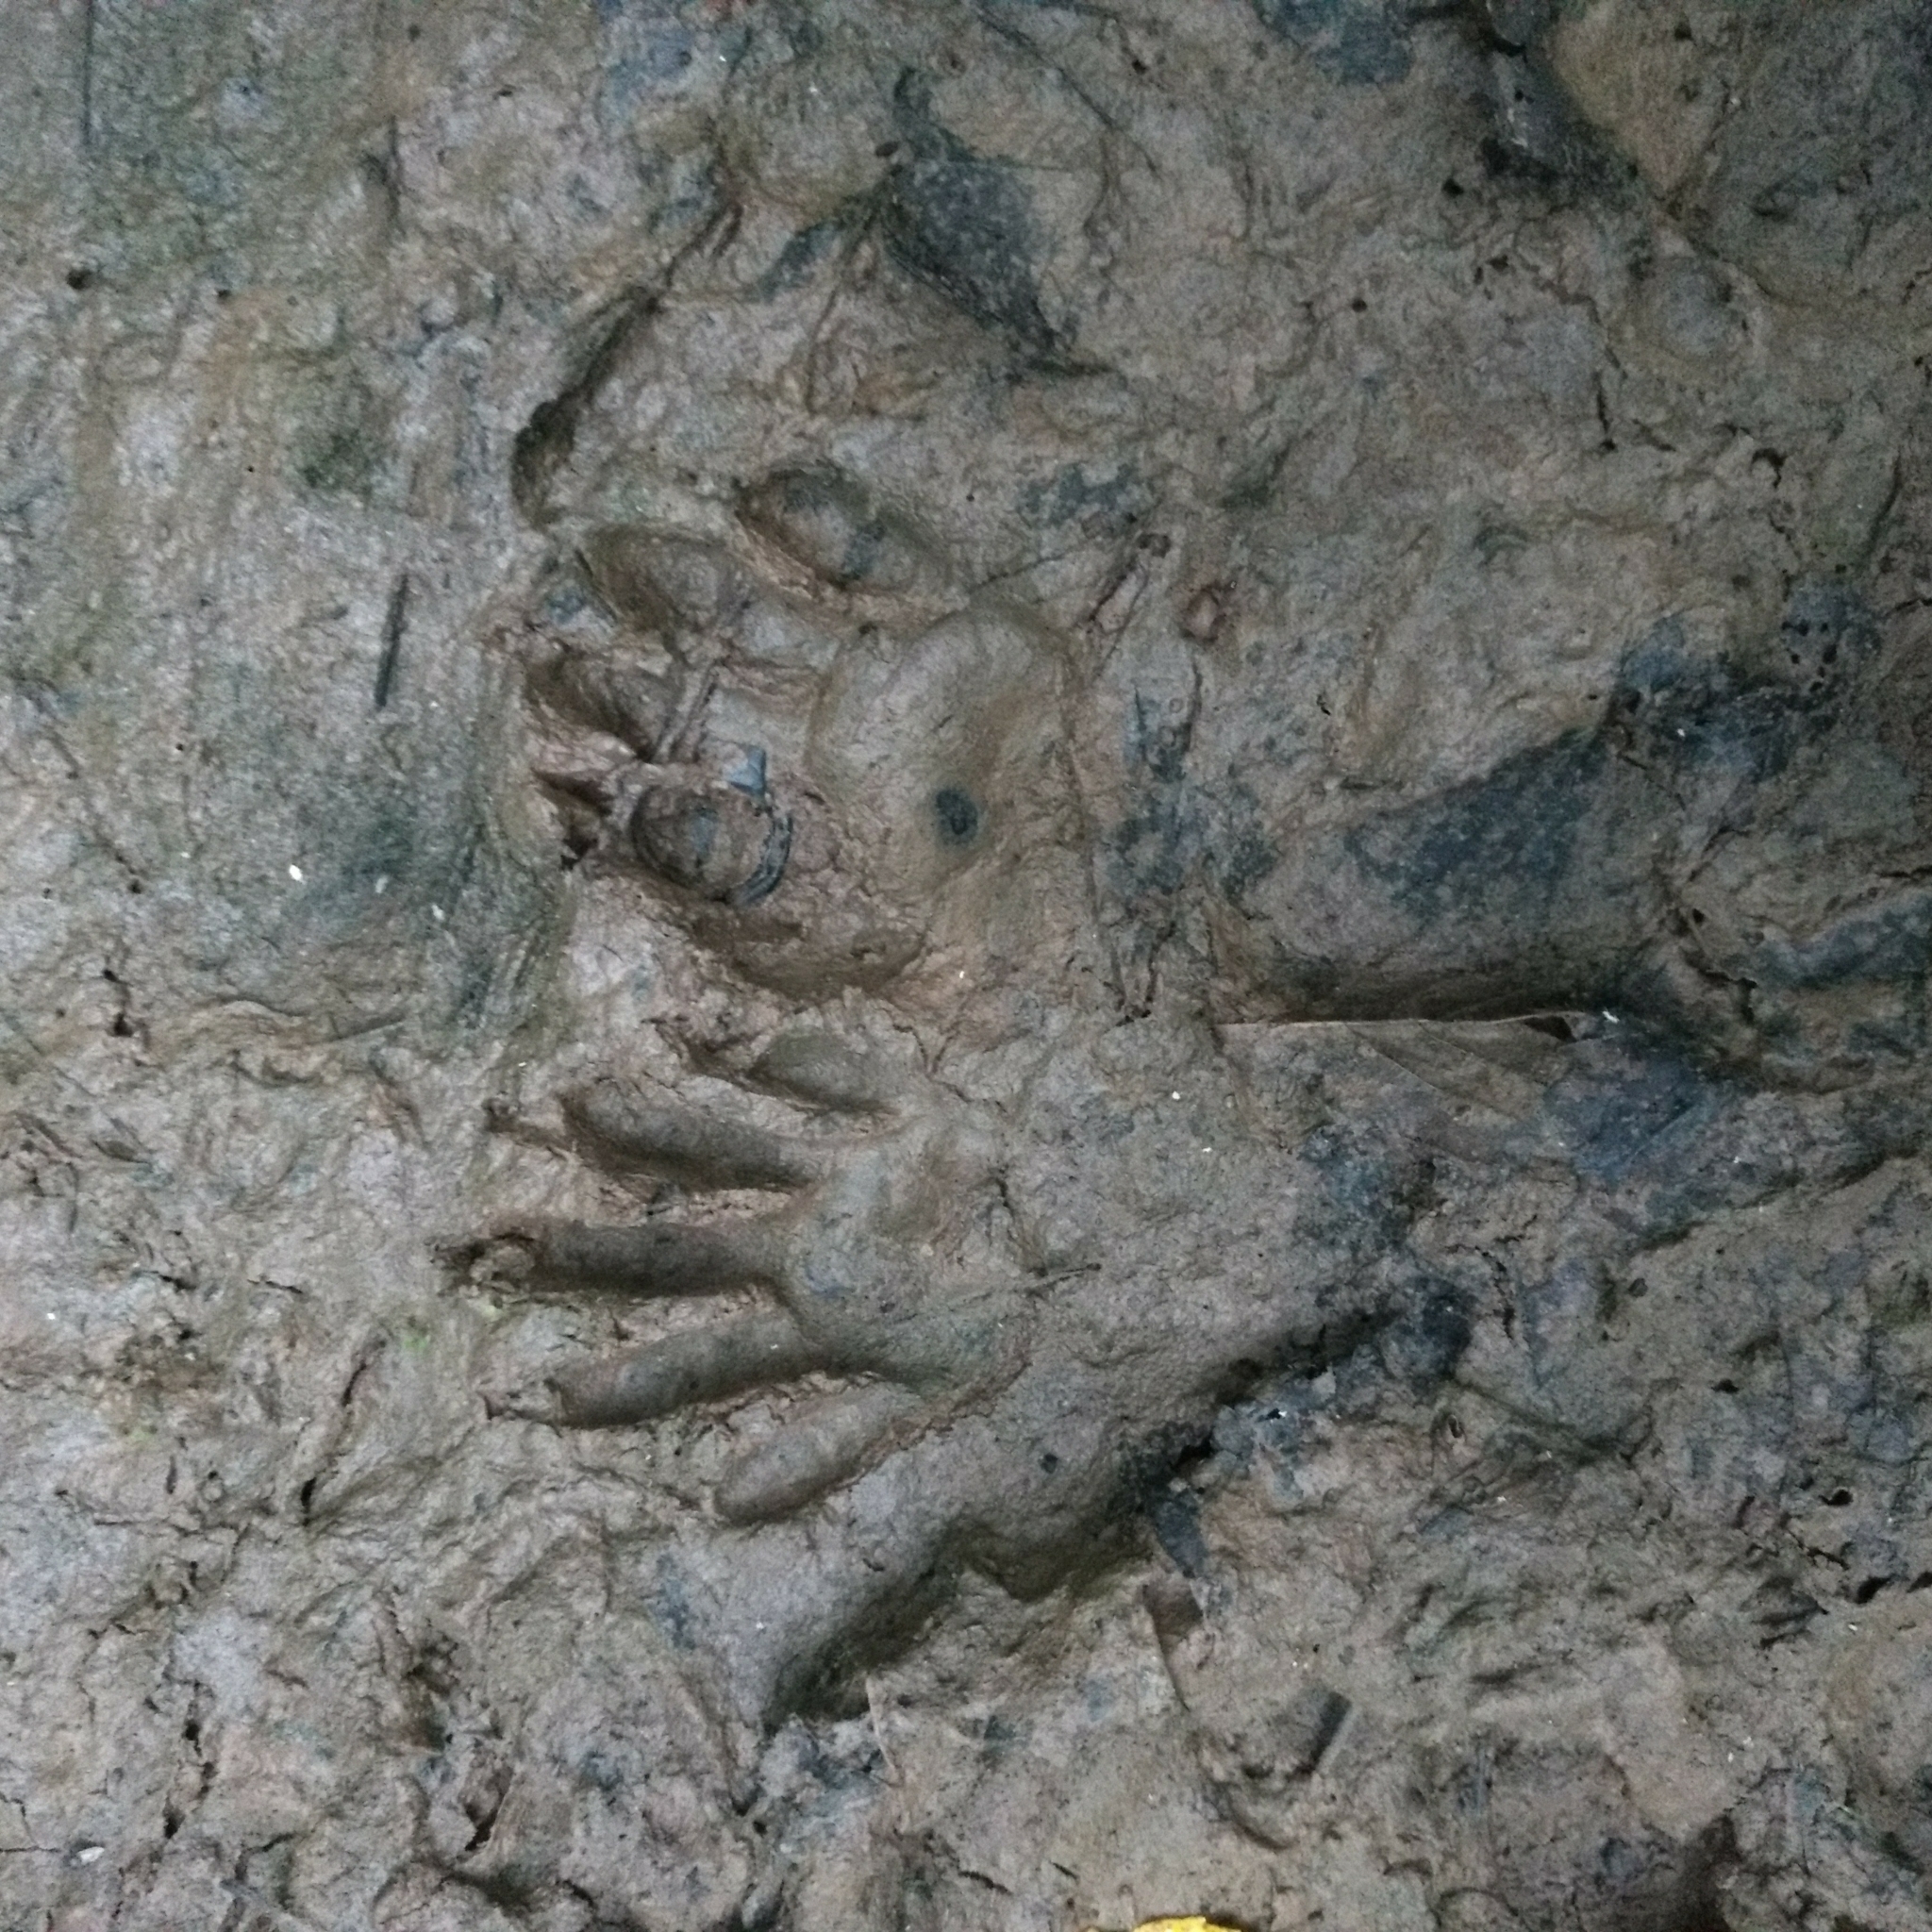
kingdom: Animalia
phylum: Chordata
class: Mammalia
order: Carnivora
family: Procyonidae
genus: Procyon
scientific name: Procyon lotor
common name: Raccoon
